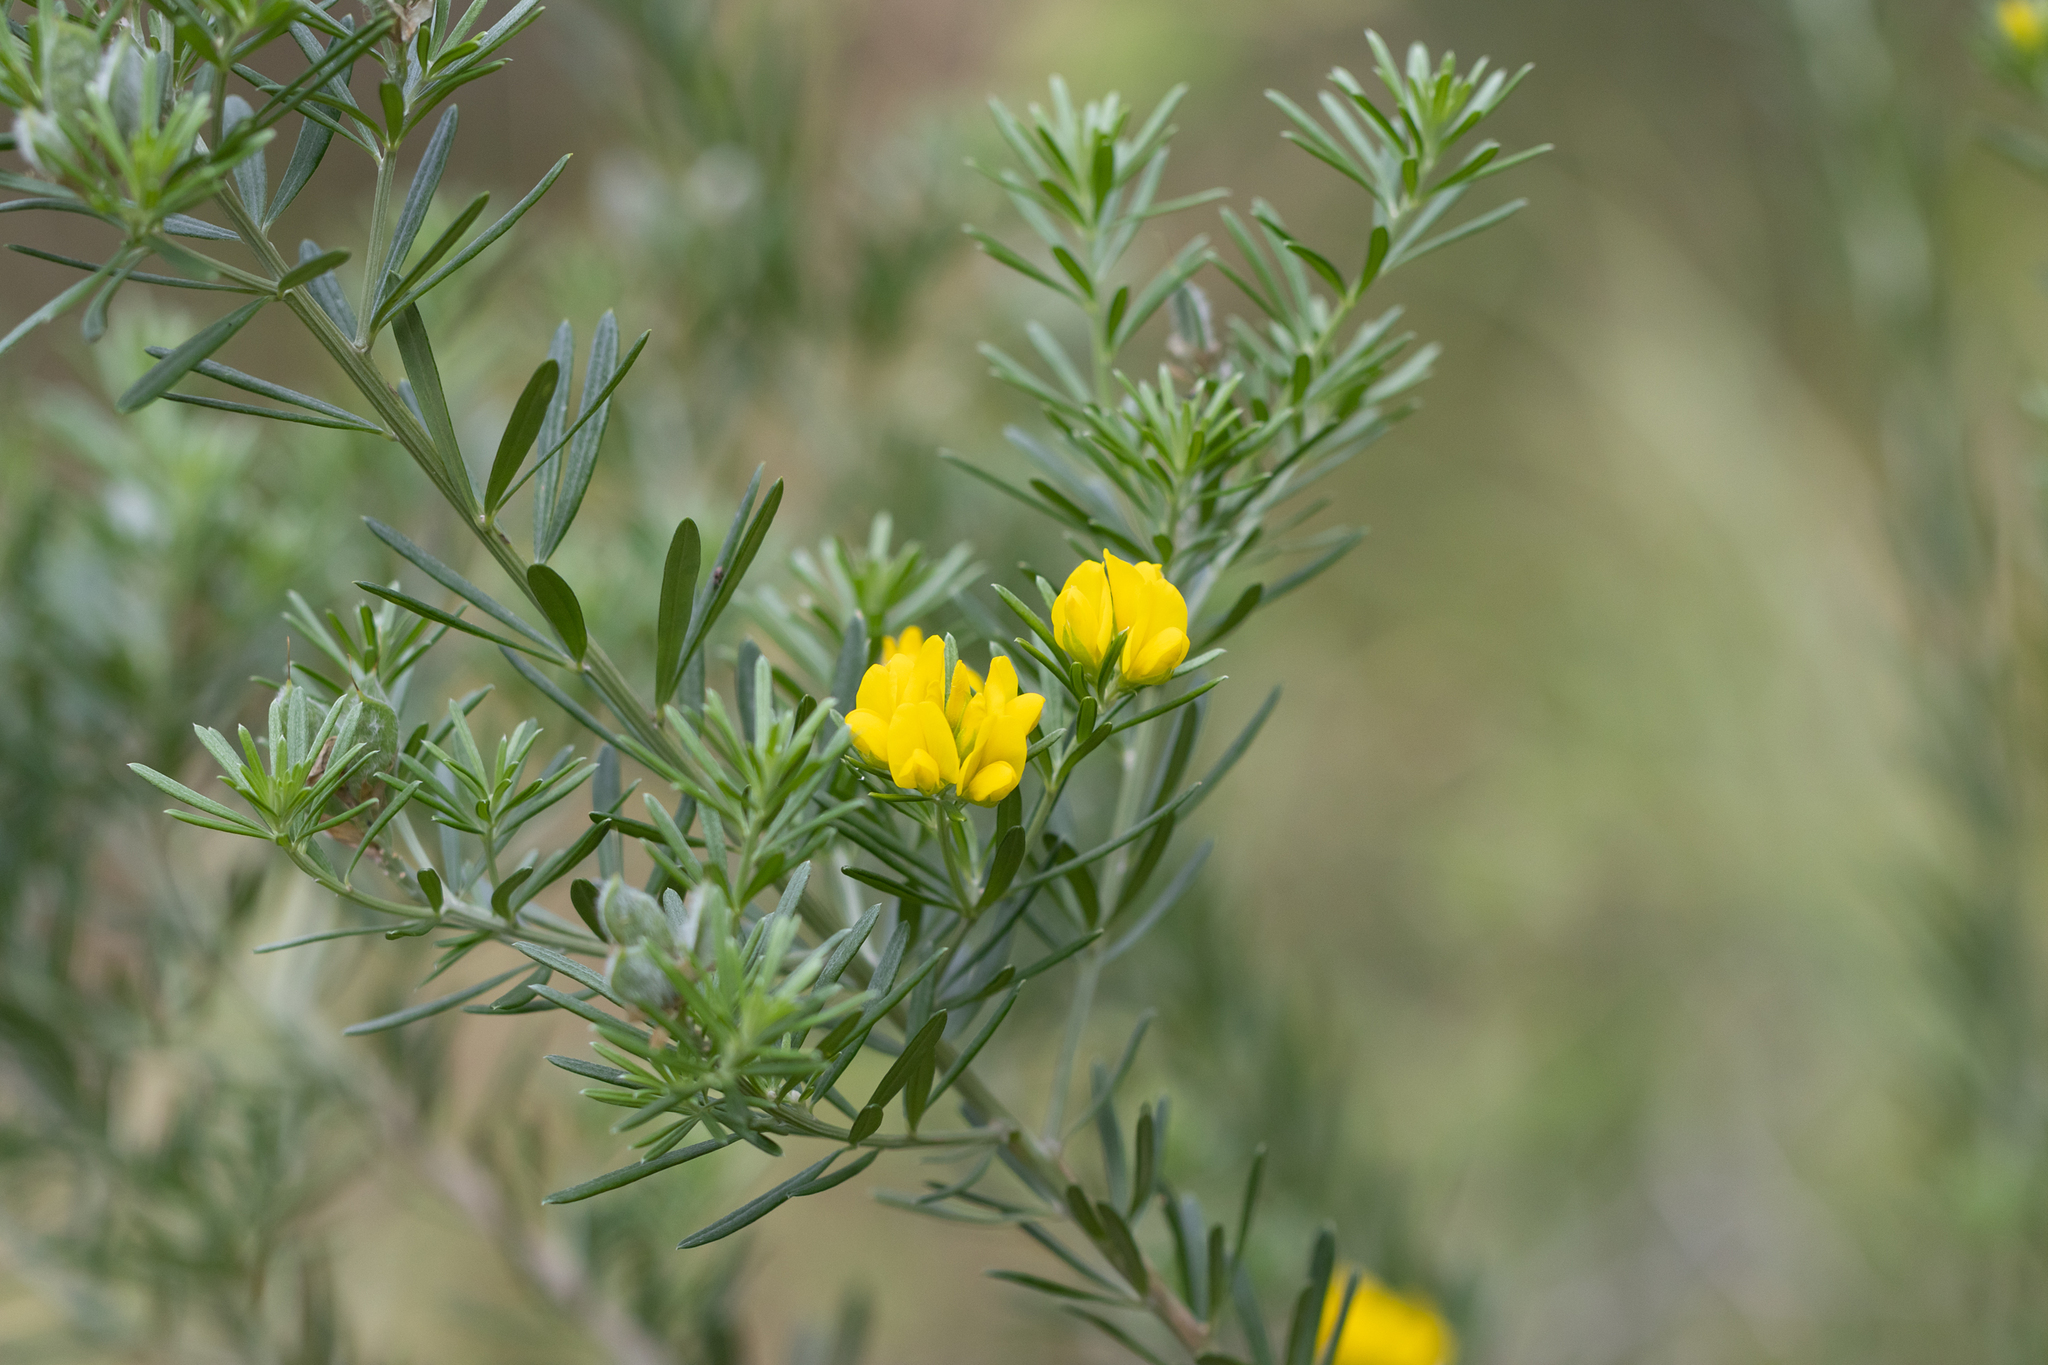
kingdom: Plantae
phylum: Tracheophyta
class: Magnoliopsida
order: Fabales
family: Fabaceae
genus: Genista
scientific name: Genista linifolia
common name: Mediterranean broom
